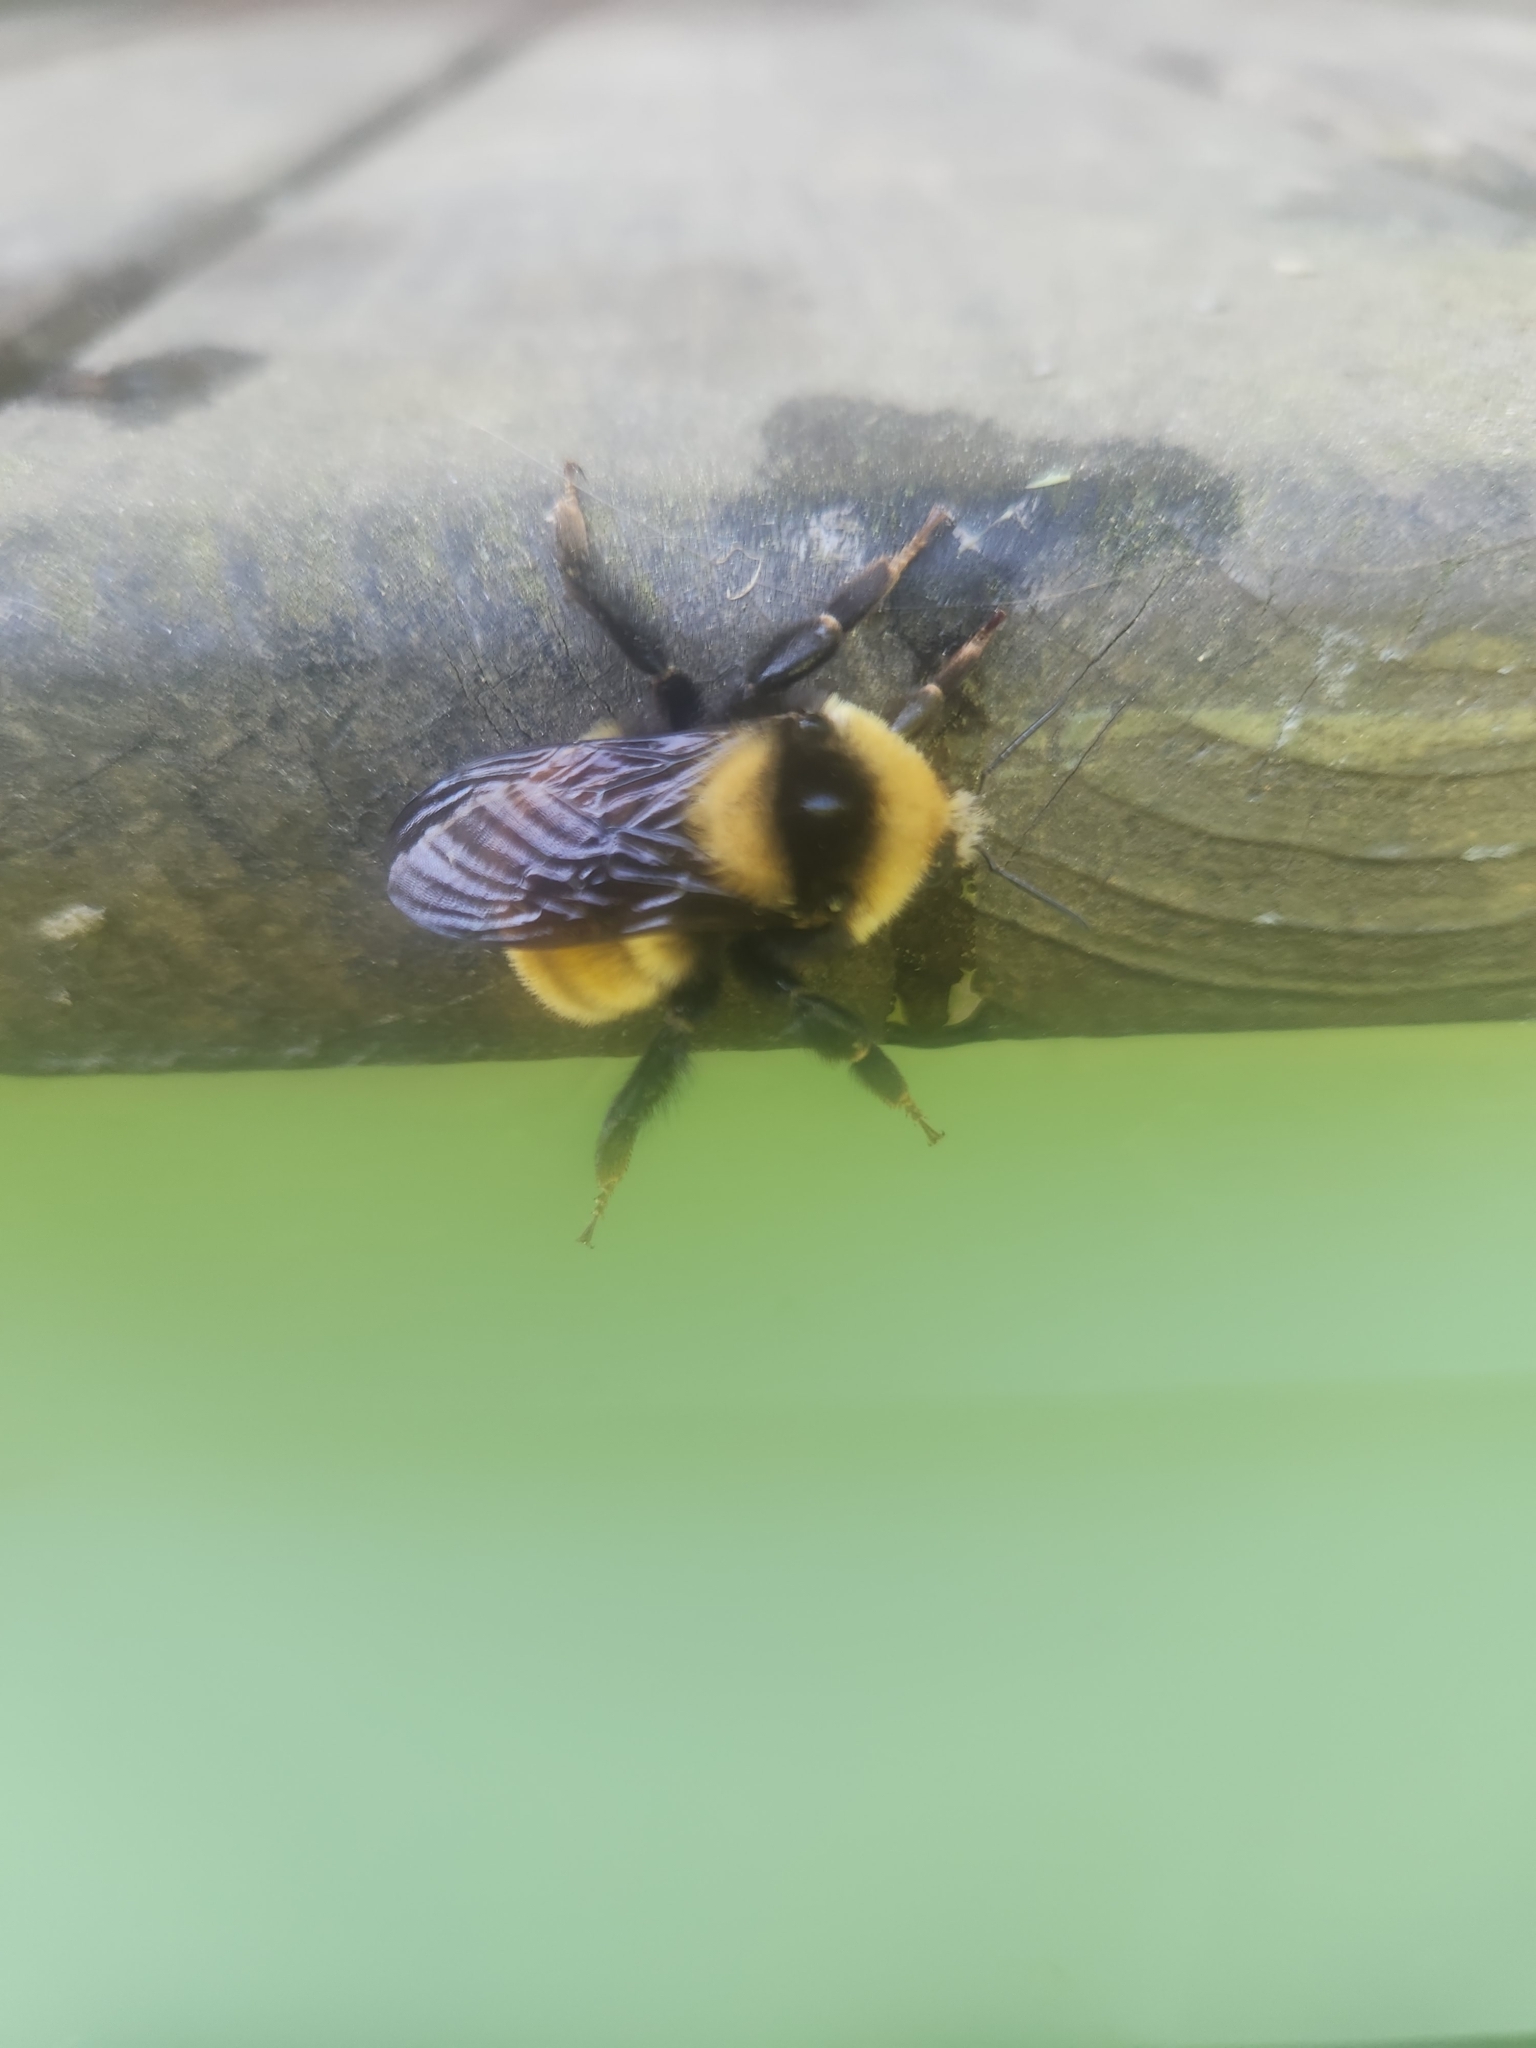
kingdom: Animalia
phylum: Arthropoda
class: Insecta
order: Hymenoptera
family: Apidae
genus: Bombus
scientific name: Bombus borealis
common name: Northern amber bumble bee
